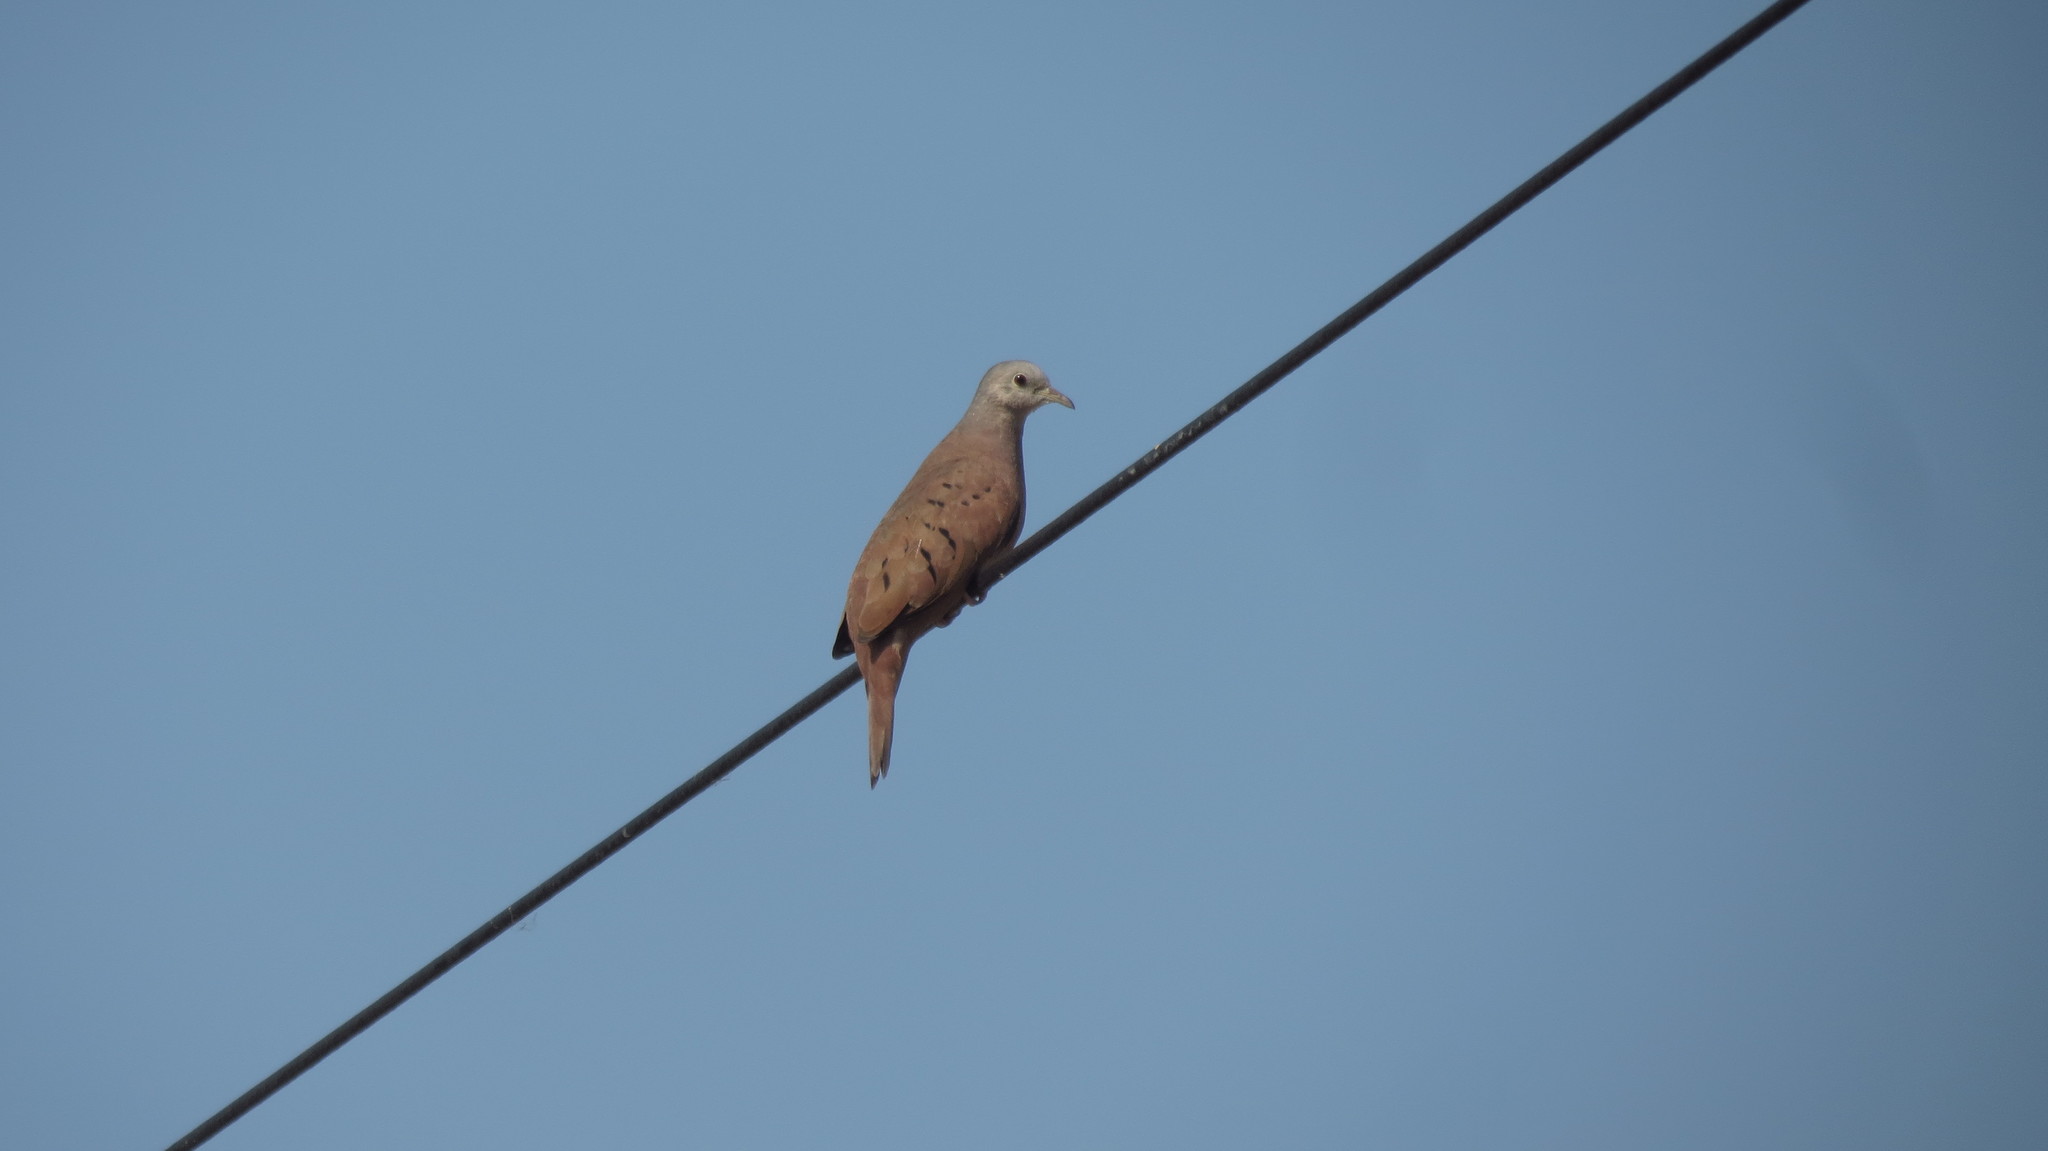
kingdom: Animalia
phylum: Chordata
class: Aves
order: Columbiformes
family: Columbidae
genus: Columbina
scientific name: Columbina talpacoti
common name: Ruddy ground dove
